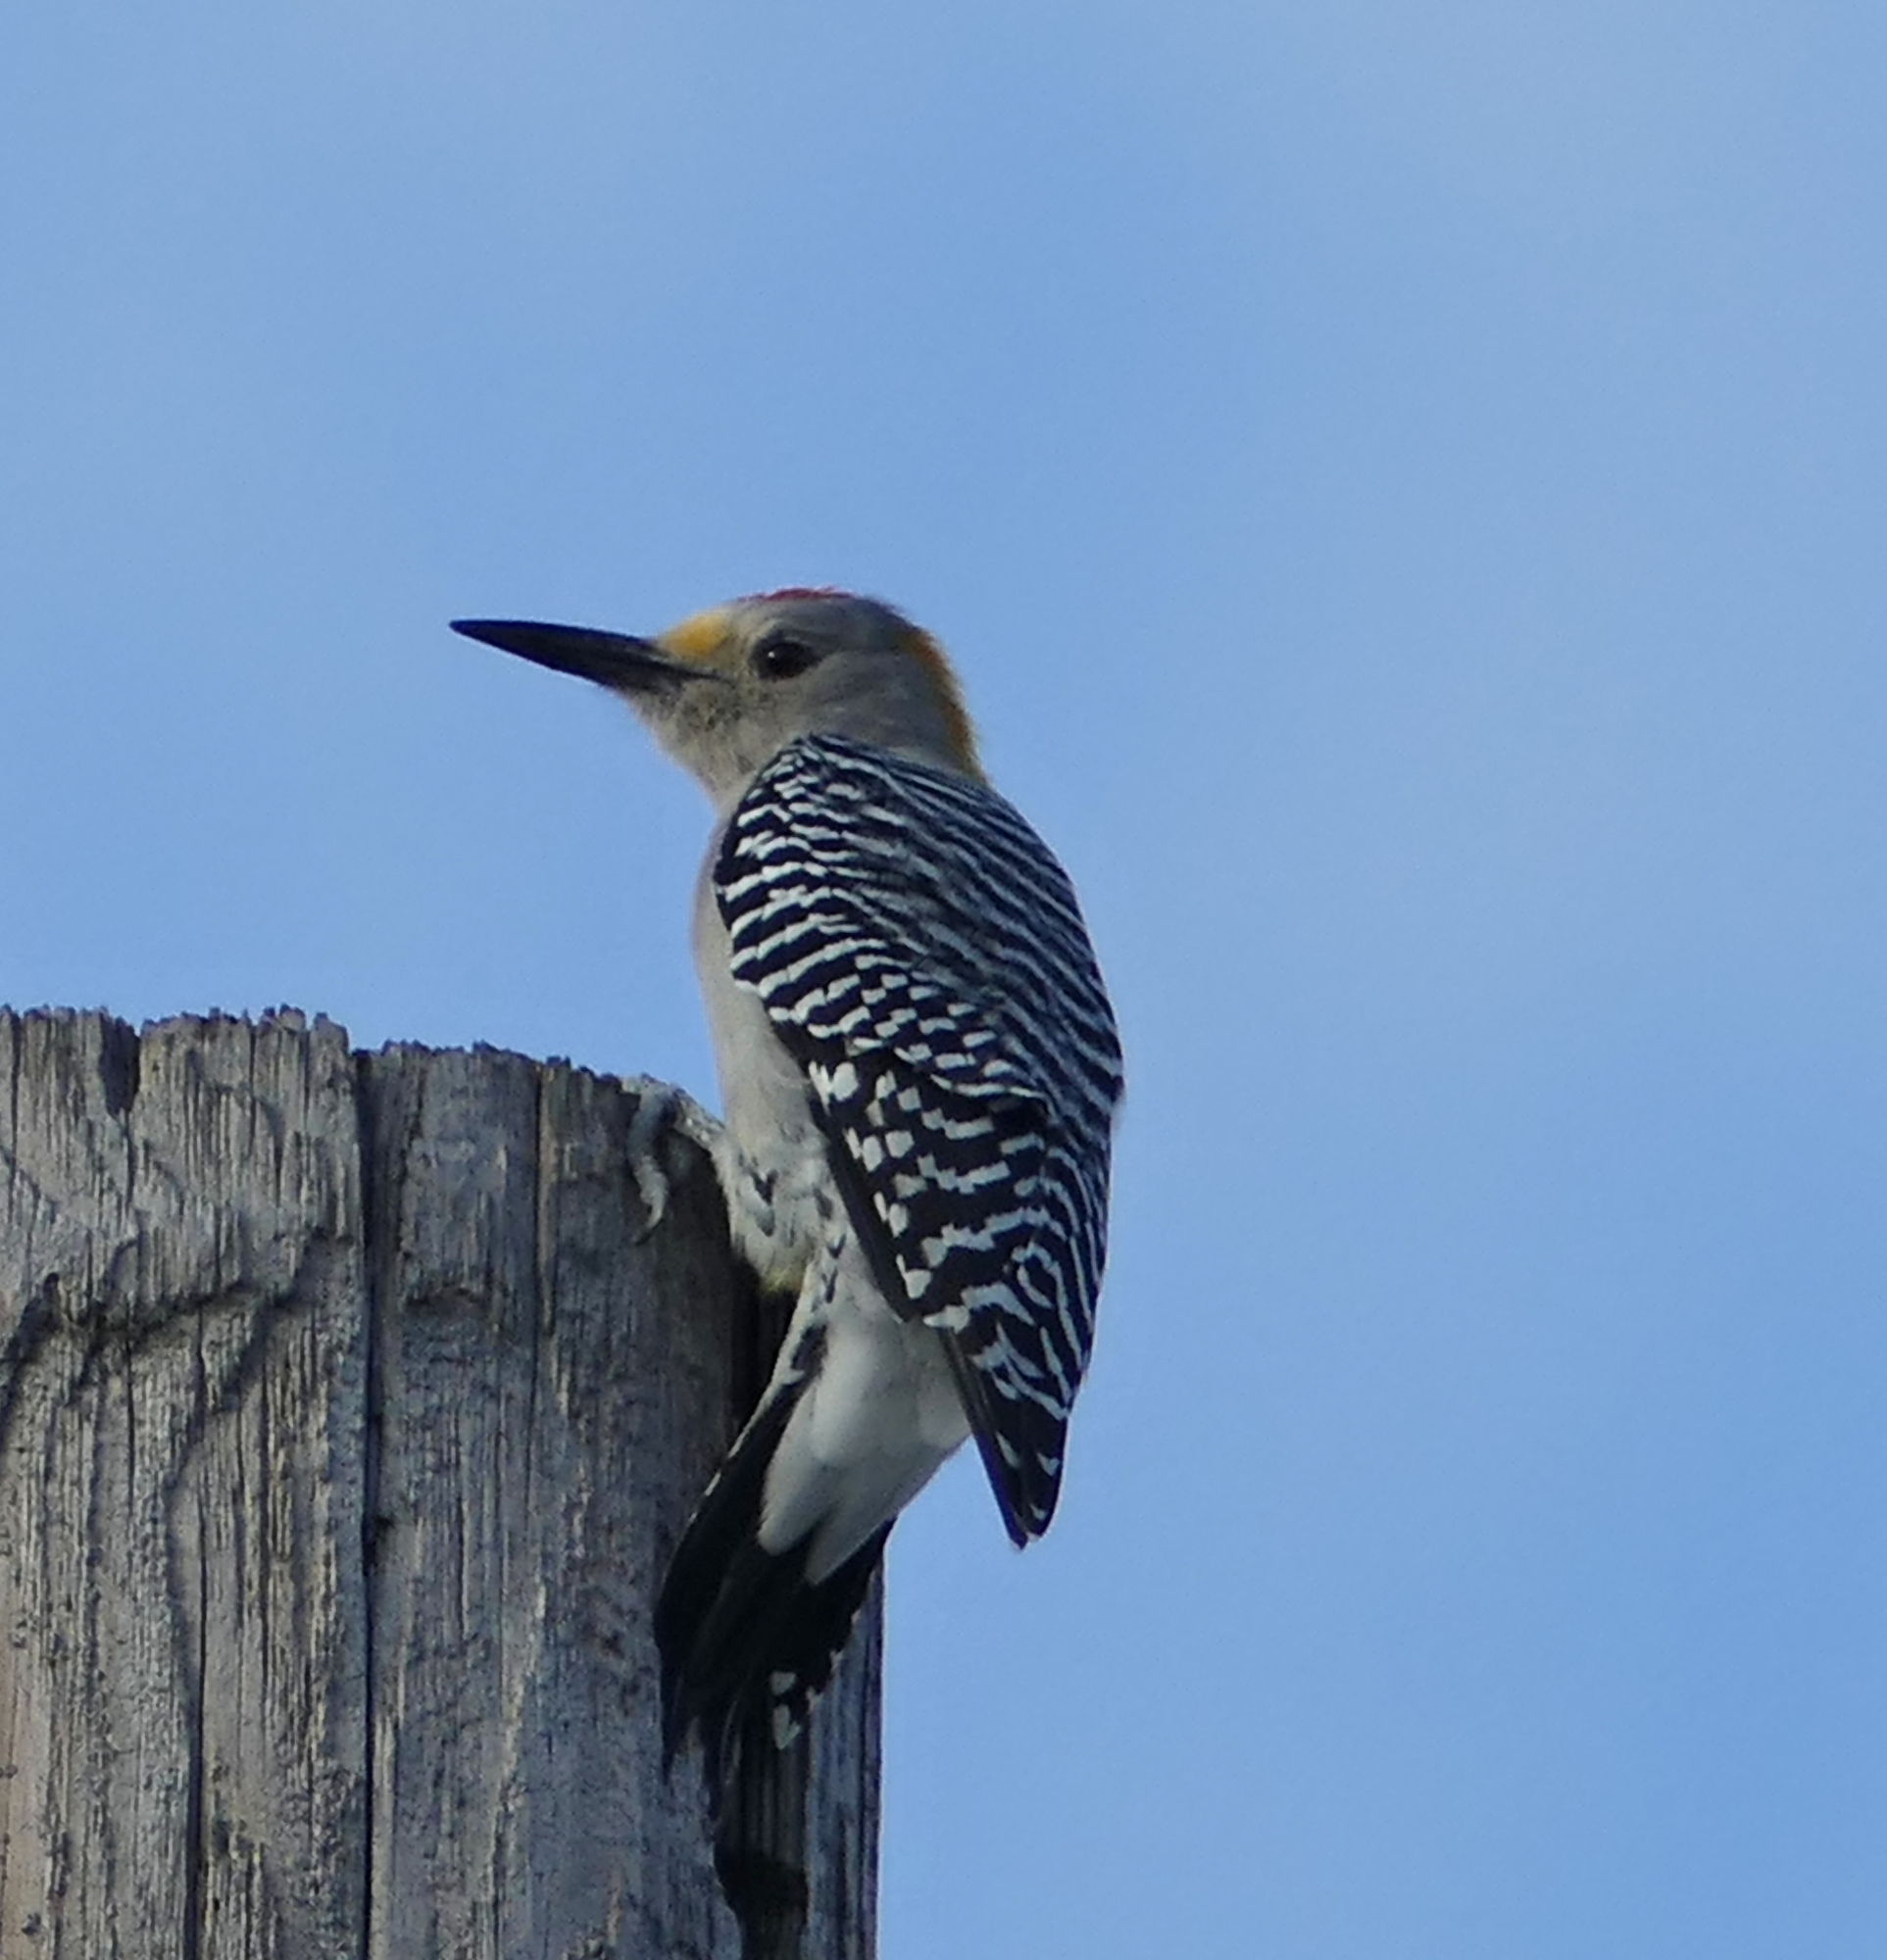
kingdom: Animalia
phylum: Chordata
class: Aves
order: Piciformes
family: Picidae
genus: Melanerpes
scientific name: Melanerpes aurifrons
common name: Golden-fronted woodpecker
